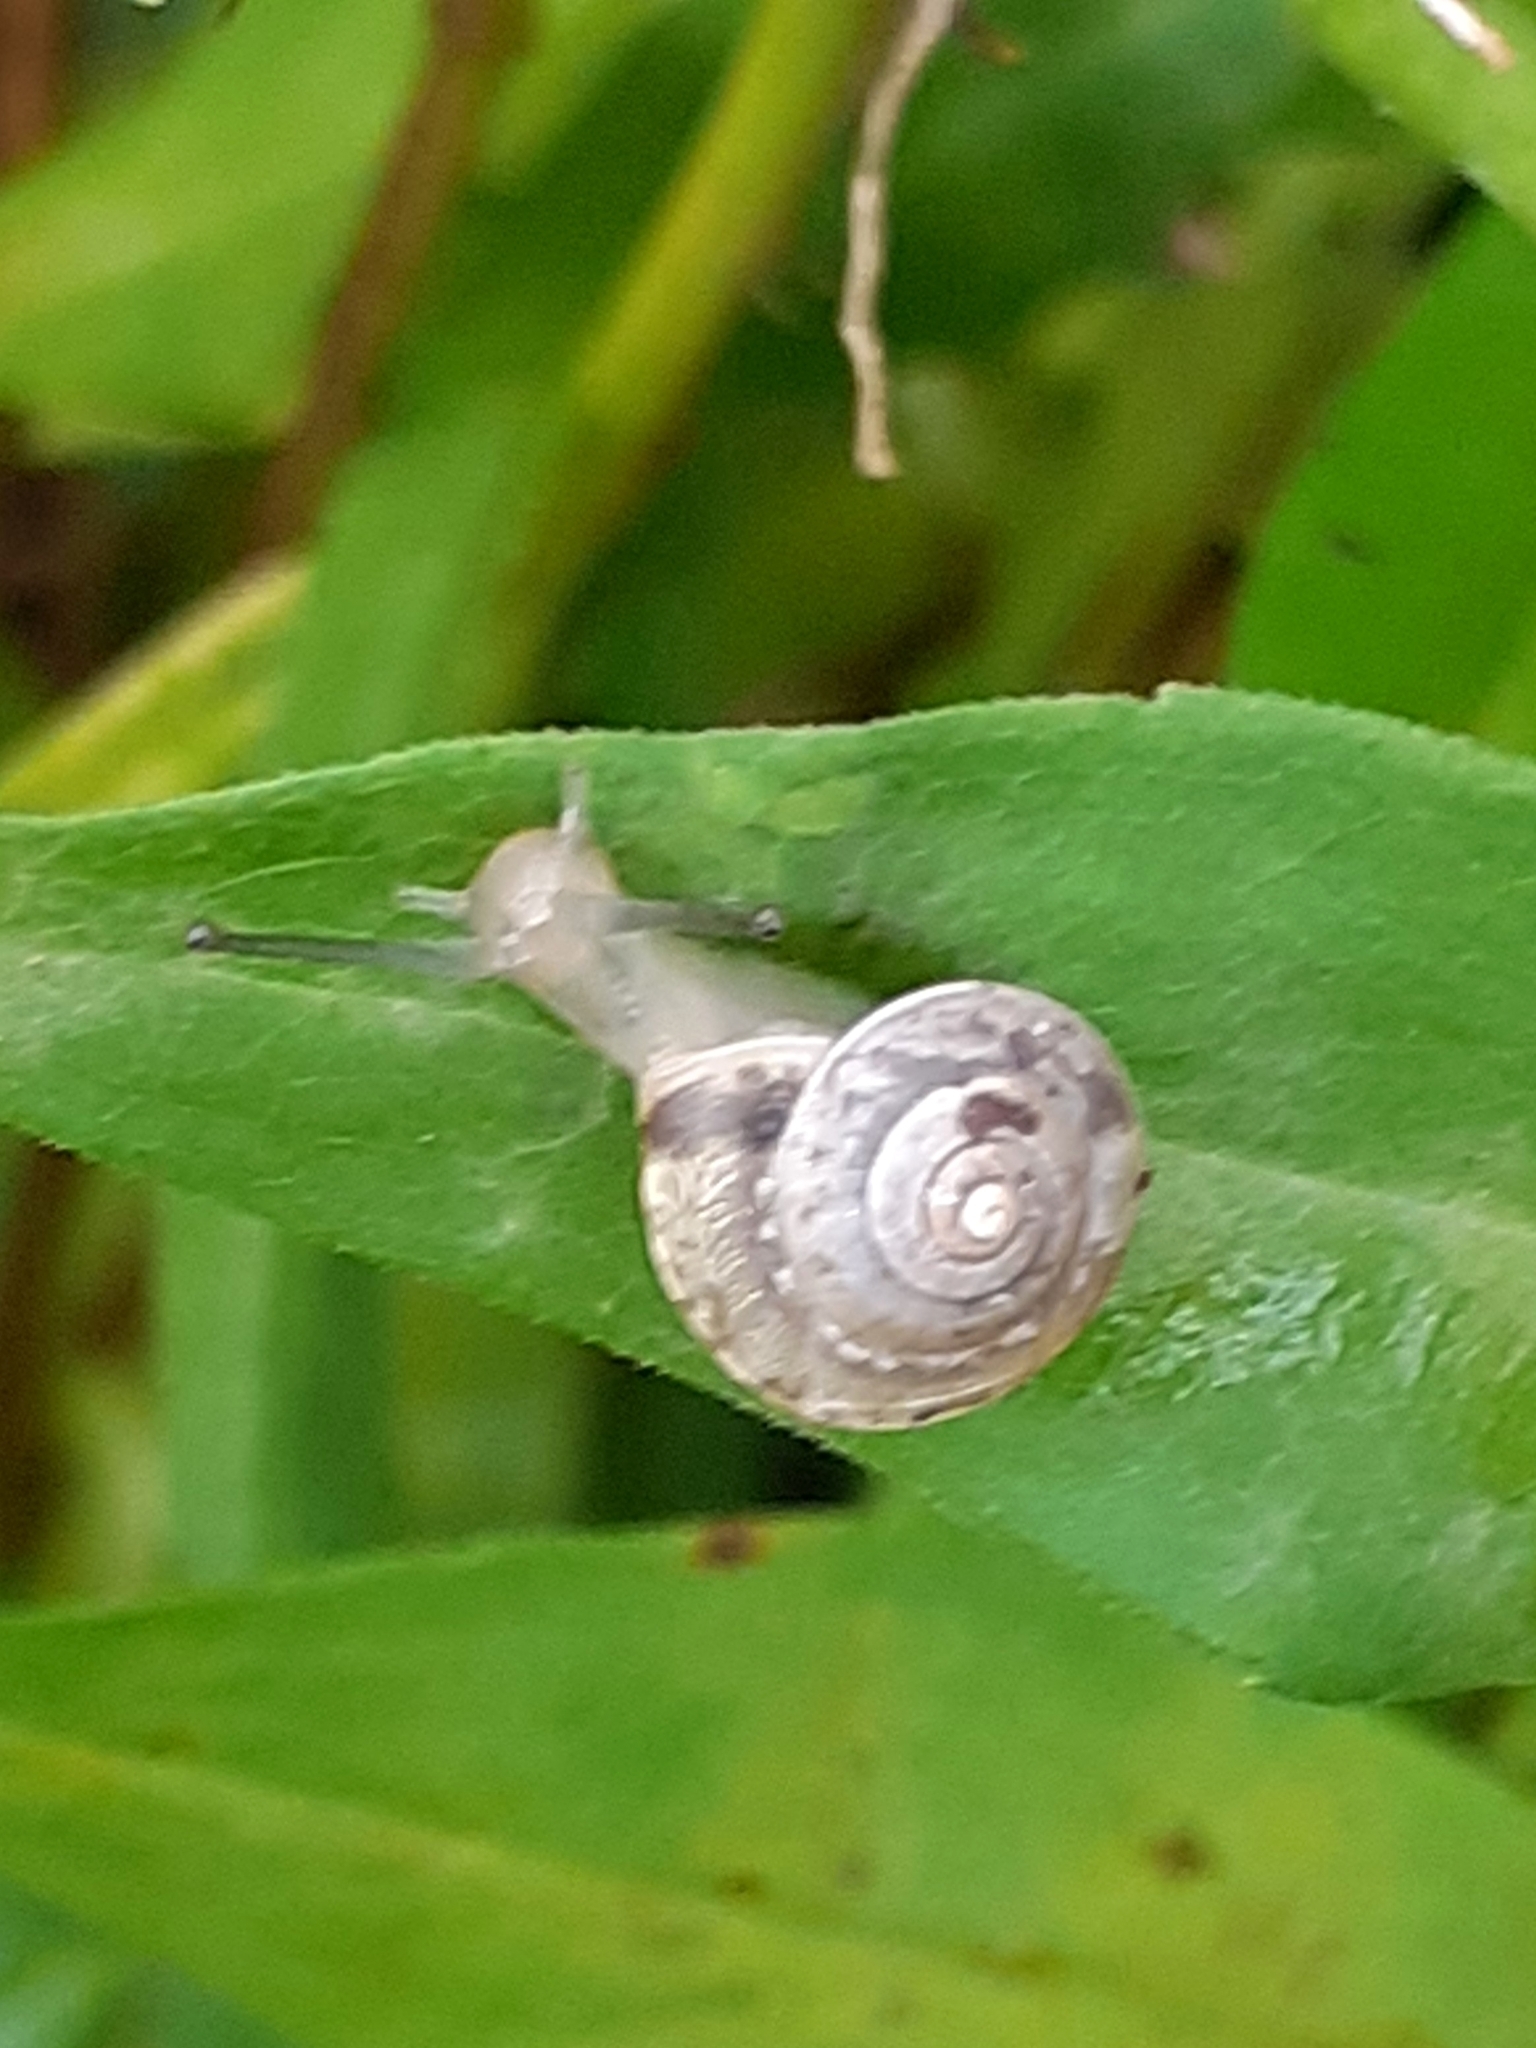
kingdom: Animalia
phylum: Mollusca
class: Gastropoda
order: Stylommatophora
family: Hygromiidae
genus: Hygromia
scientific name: Hygromia cinctella
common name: Girdled snail
